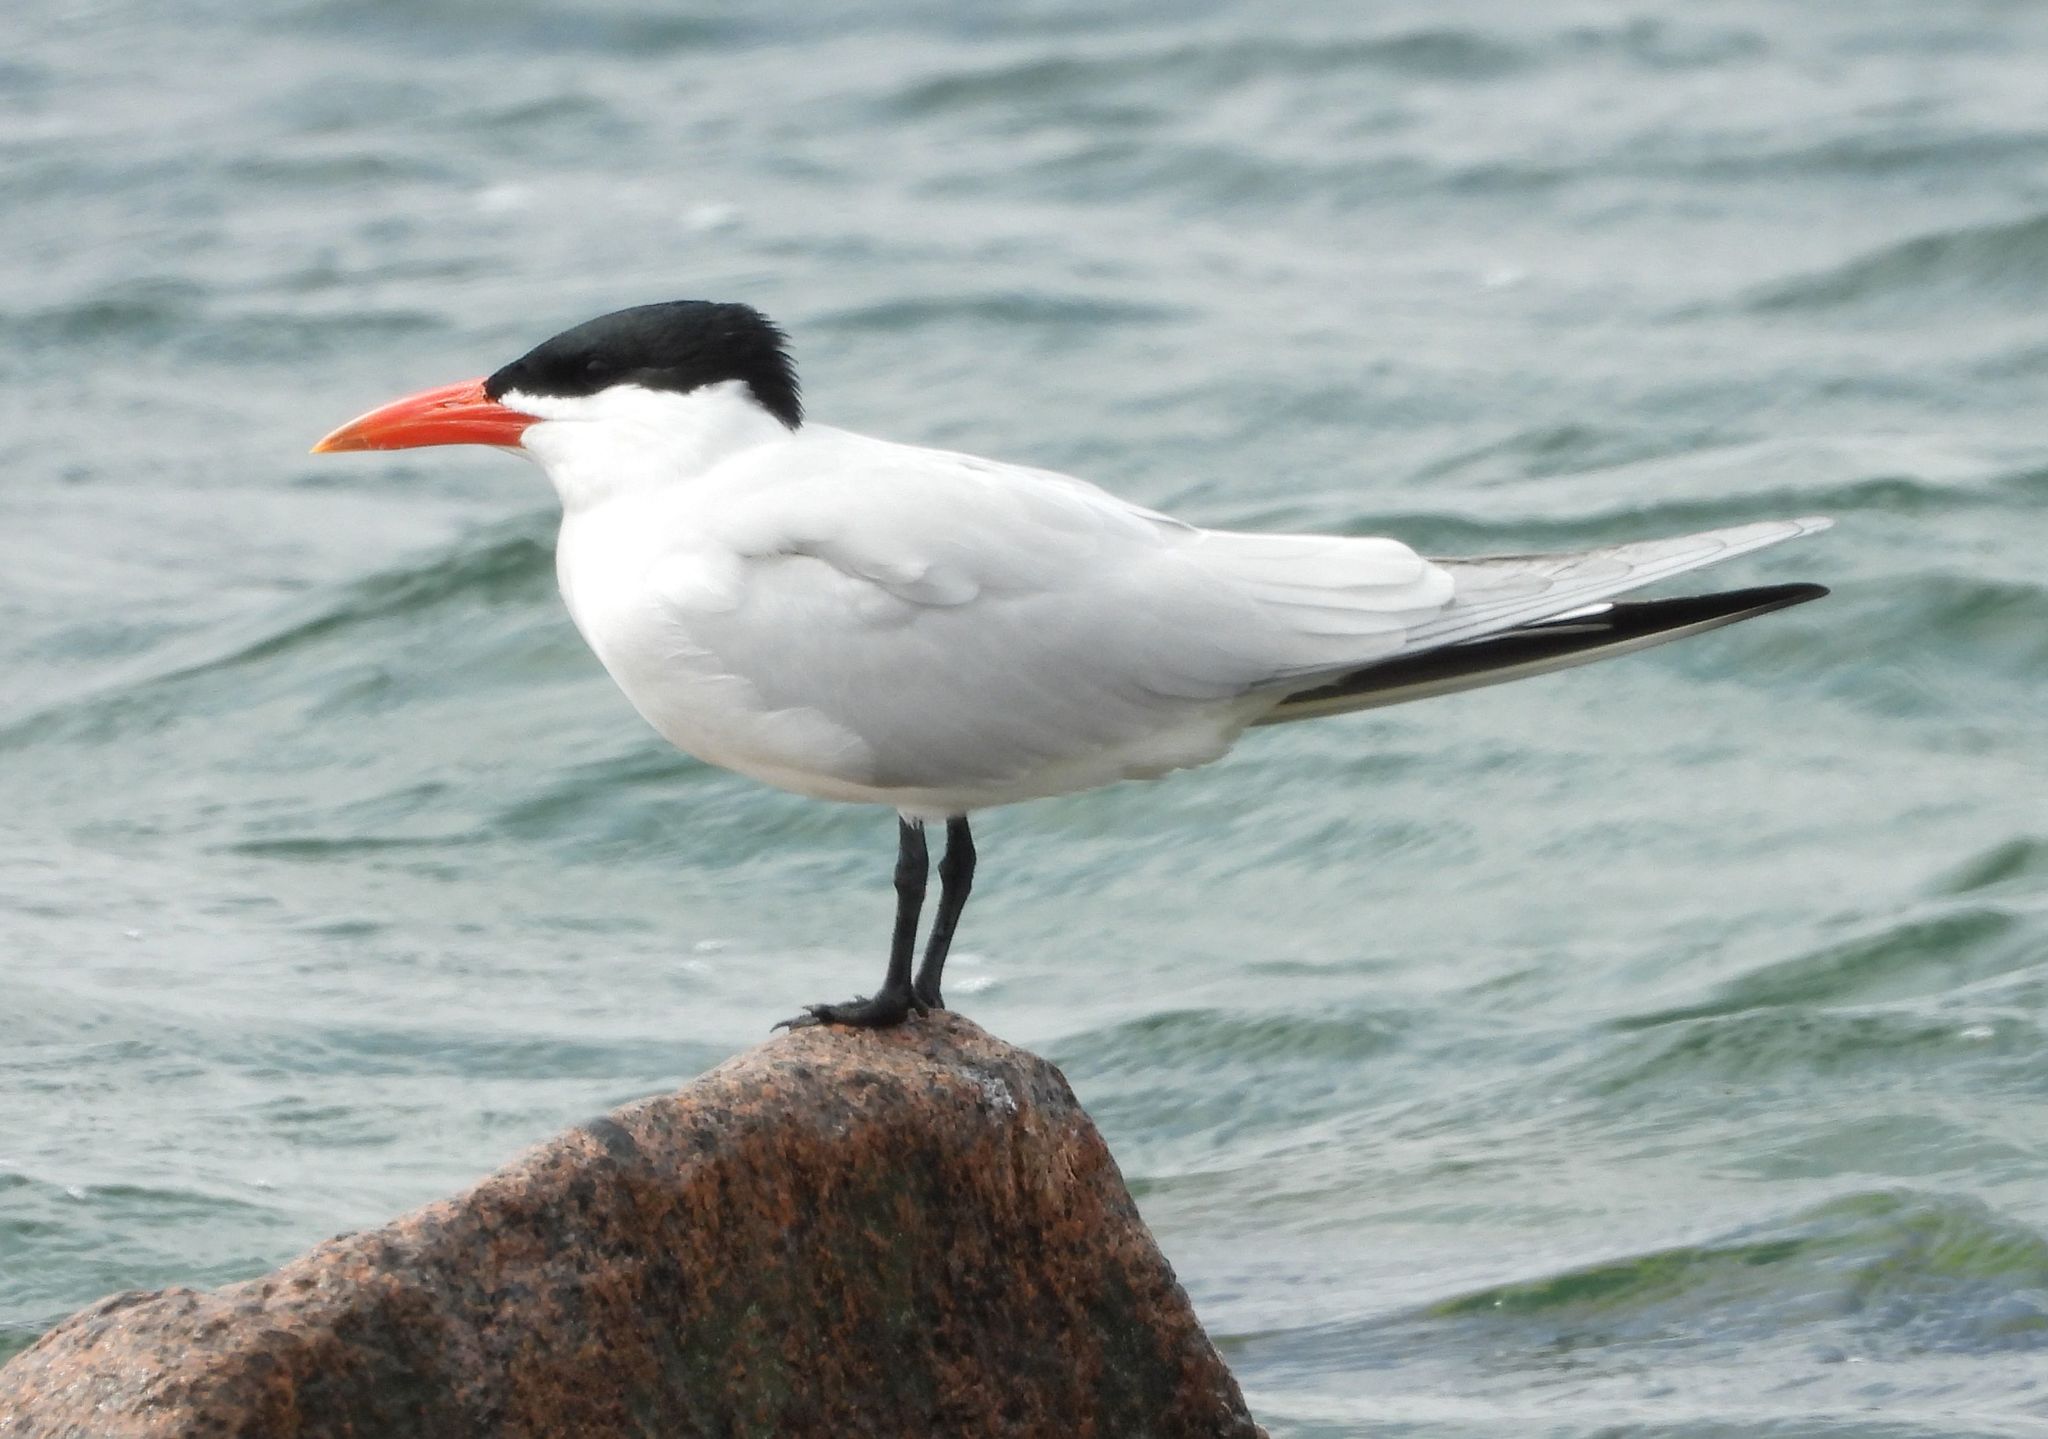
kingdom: Animalia
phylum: Chordata
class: Aves
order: Charadriiformes
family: Laridae
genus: Hydroprogne
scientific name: Hydroprogne caspia
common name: Caspian tern
